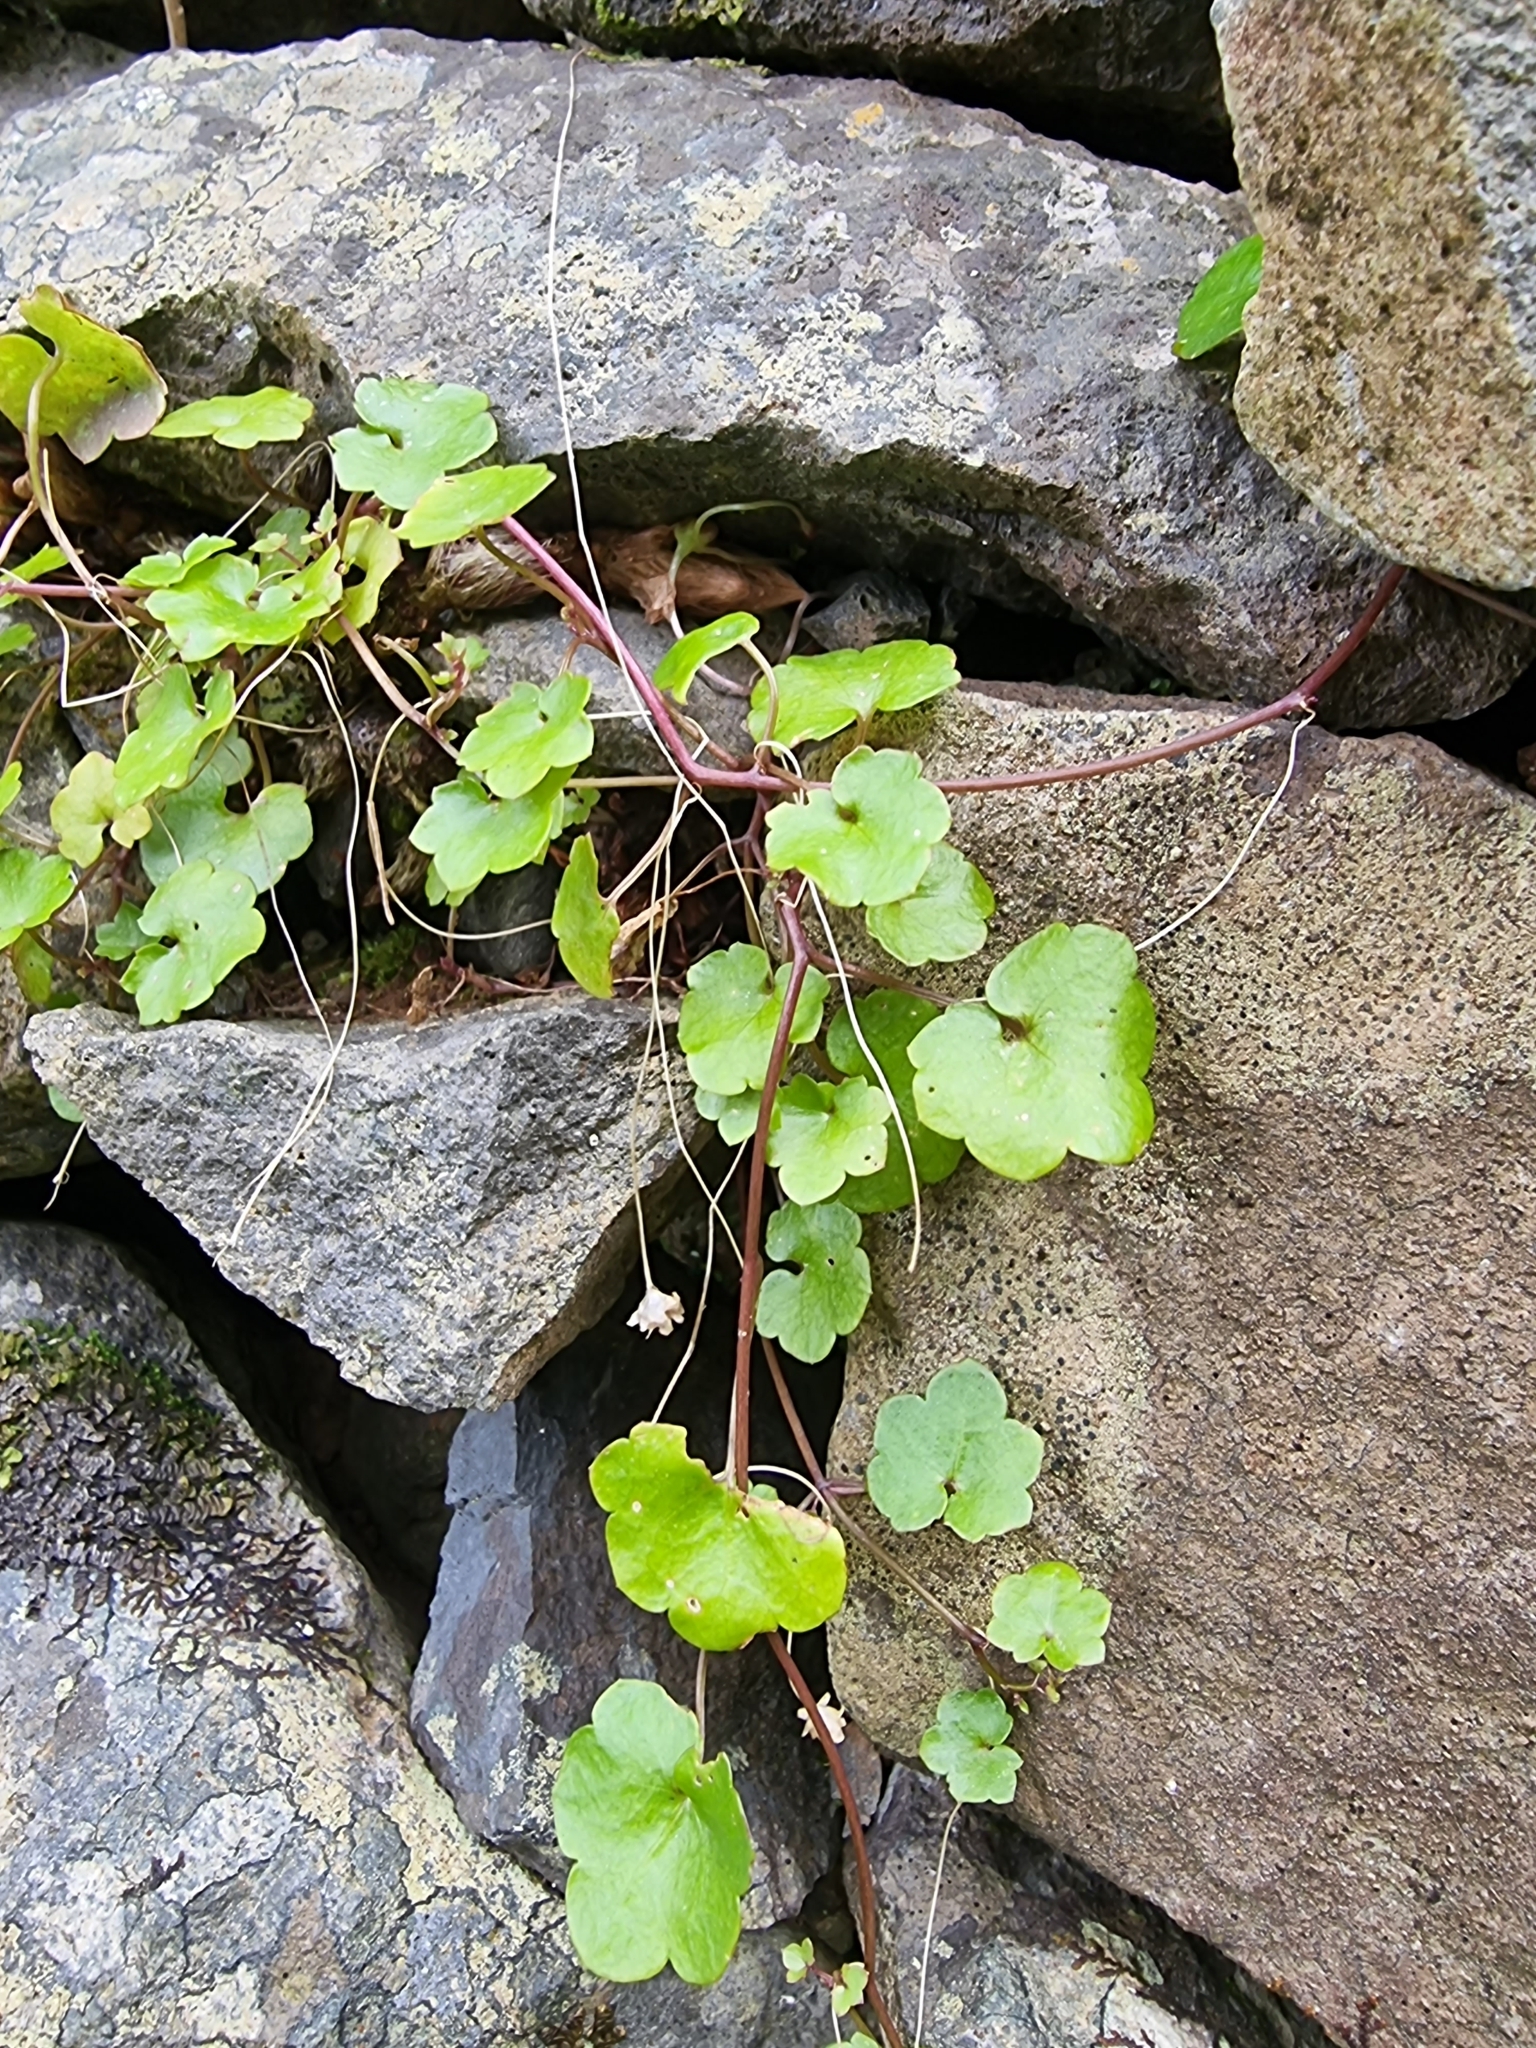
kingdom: Plantae
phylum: Tracheophyta
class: Magnoliopsida
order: Lamiales
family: Plantaginaceae
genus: Cymbalaria
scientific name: Cymbalaria muralis
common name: Ivy-leaved toadflax
